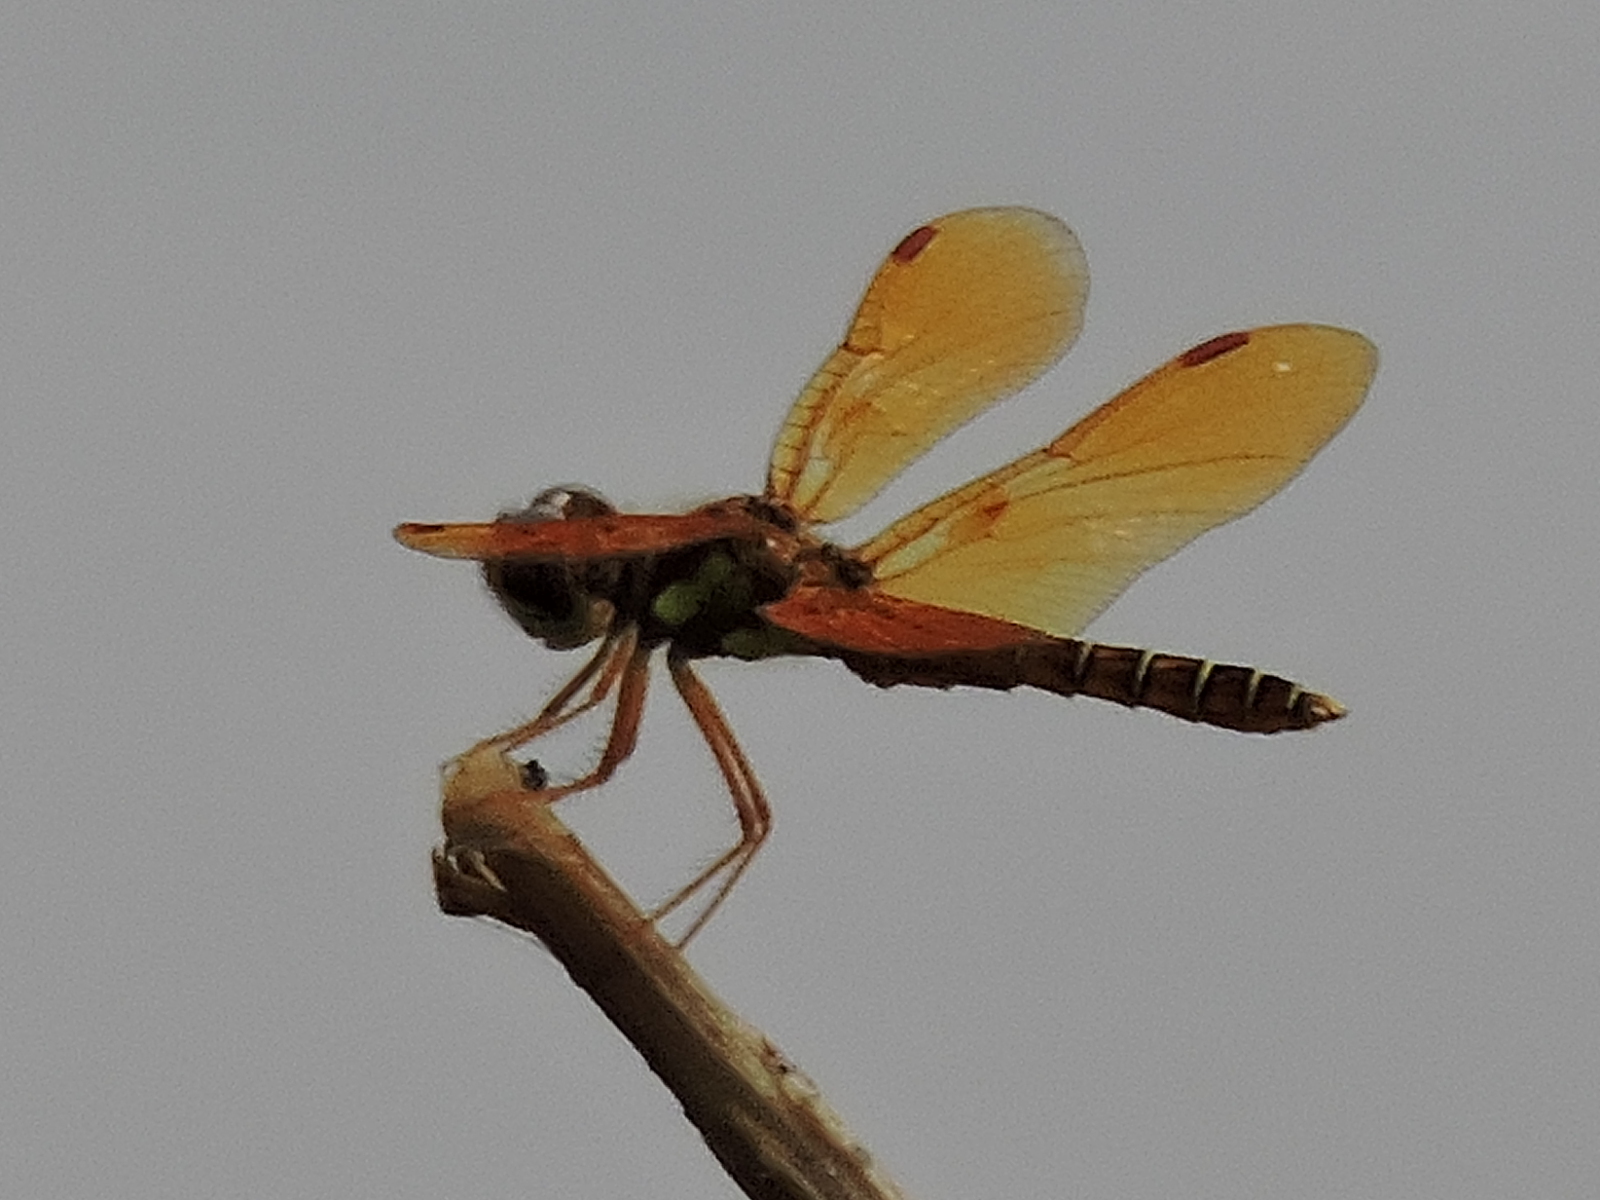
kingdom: Animalia
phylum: Arthropoda
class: Insecta
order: Odonata
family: Libellulidae
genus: Perithemis
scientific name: Perithemis tenera
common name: Eastern amberwing
